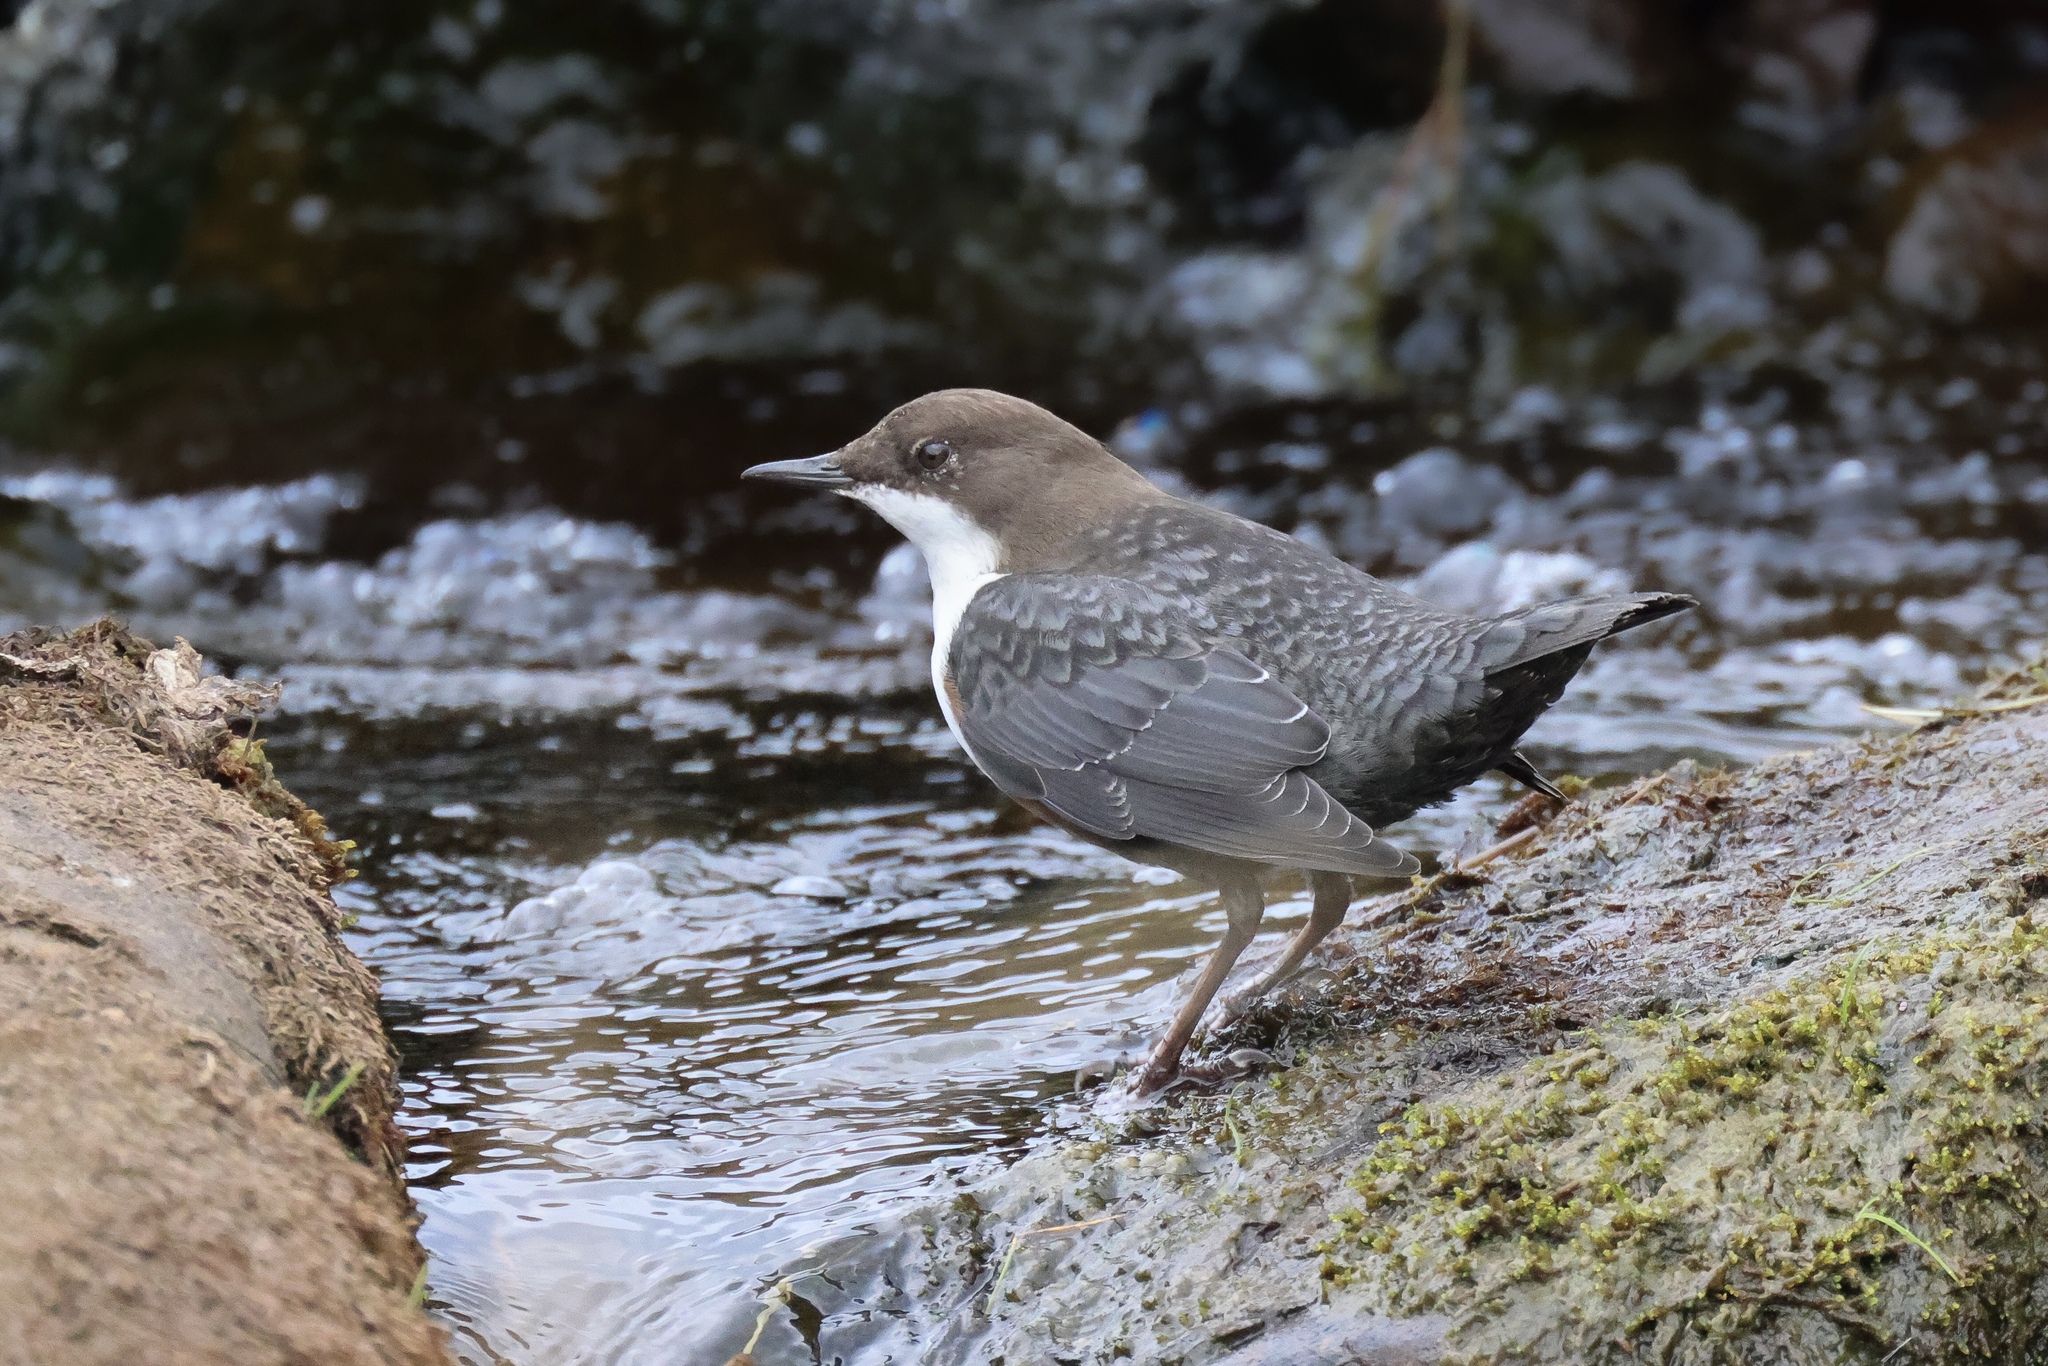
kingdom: Animalia
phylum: Chordata
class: Aves
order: Passeriformes
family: Cinclidae
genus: Cinclus
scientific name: Cinclus cinclus
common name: White-throated dipper
